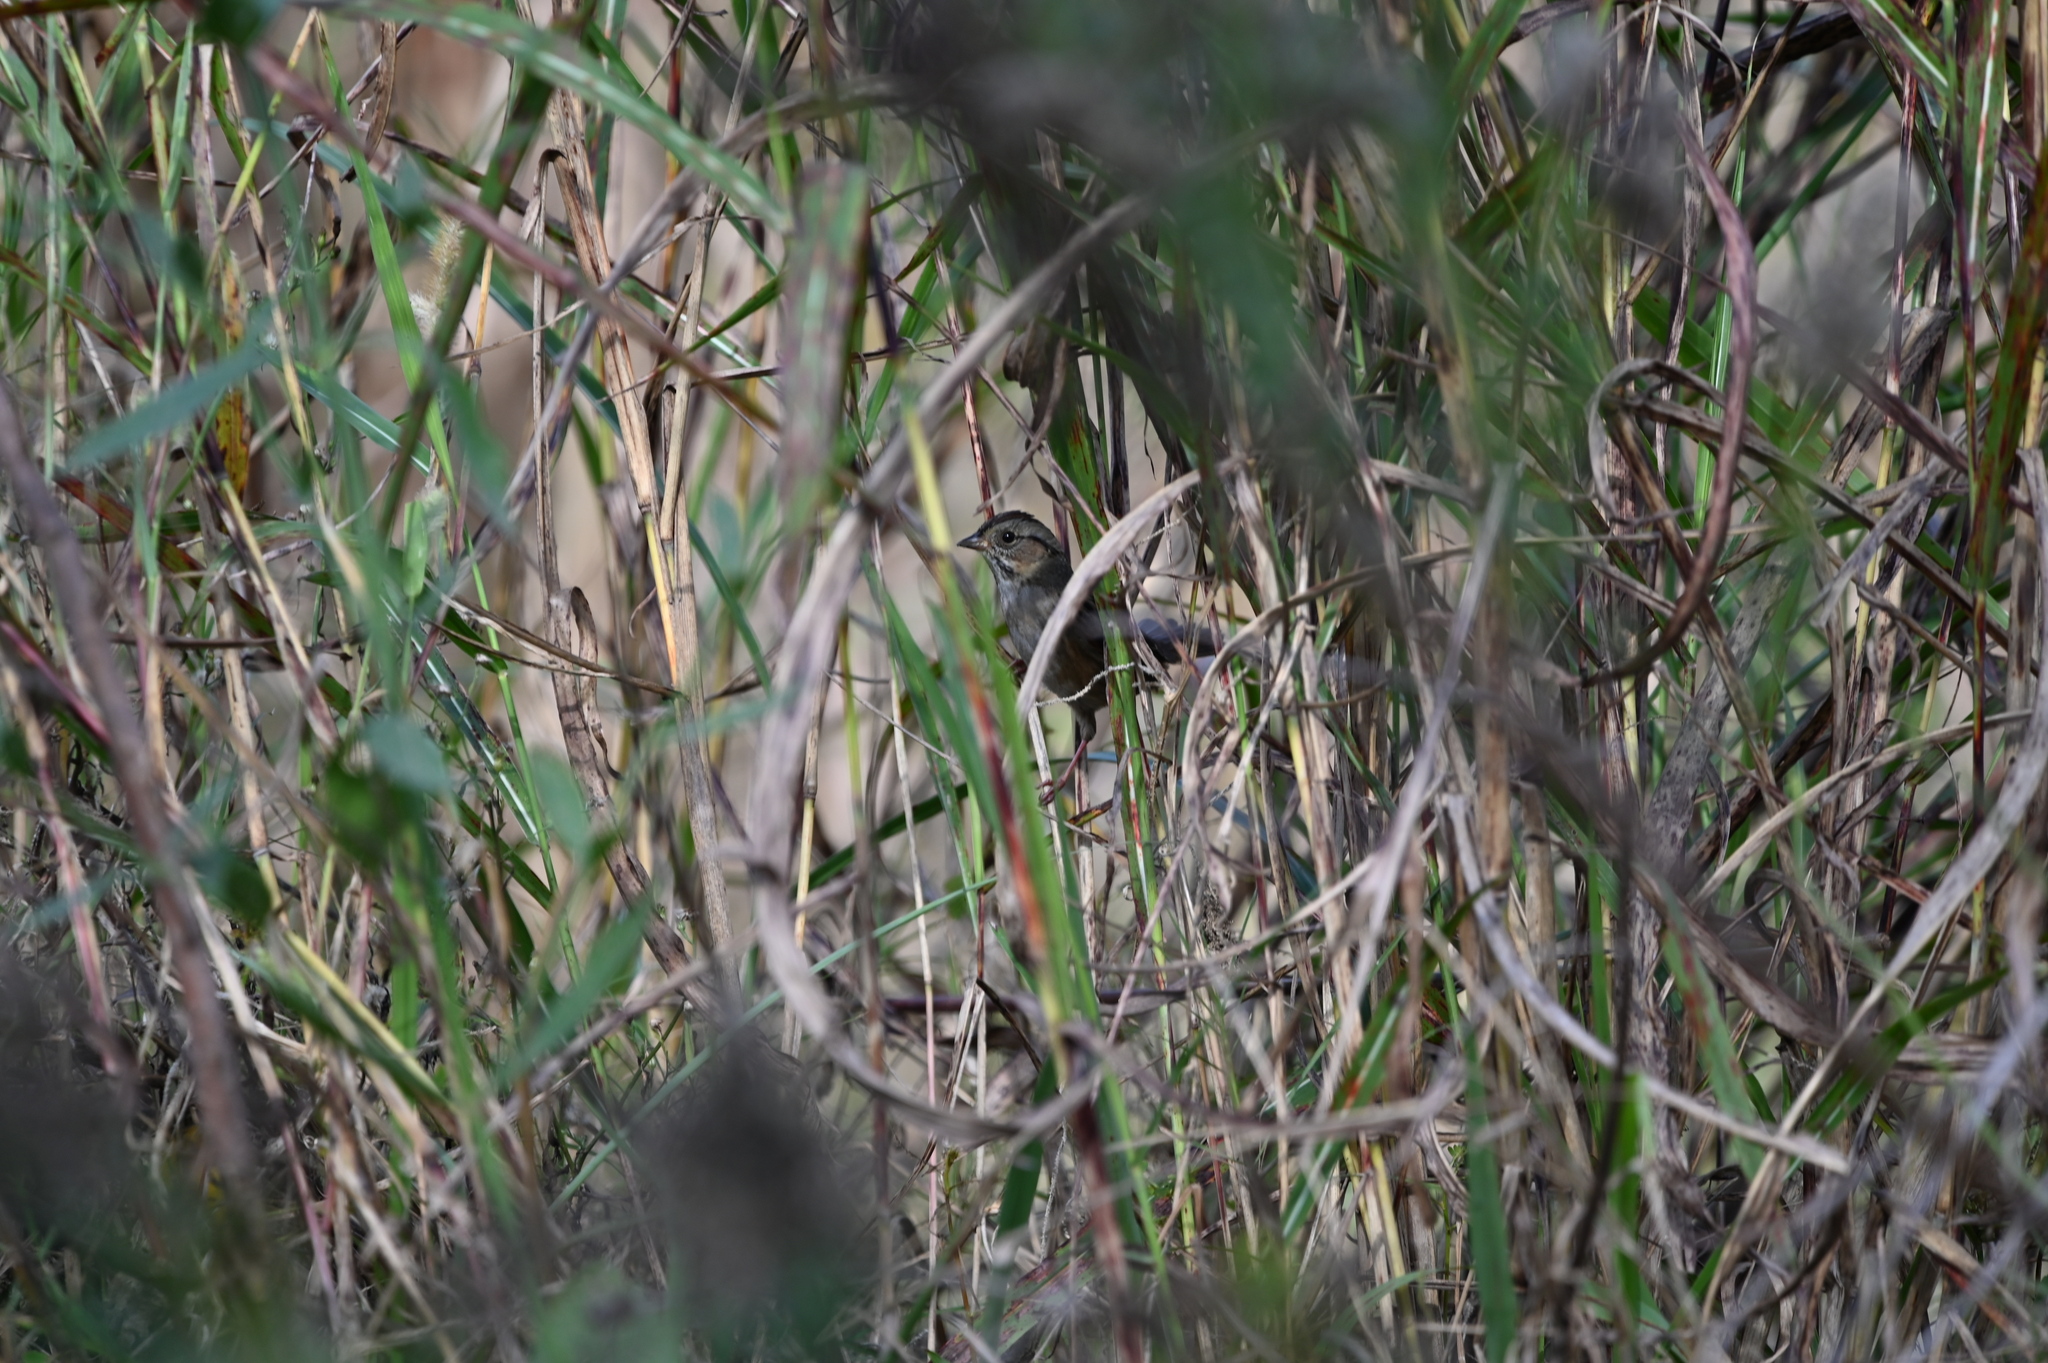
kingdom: Animalia
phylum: Chordata
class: Aves
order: Passeriformes
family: Passerellidae
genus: Melospiza
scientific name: Melospiza georgiana
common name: Swamp sparrow
